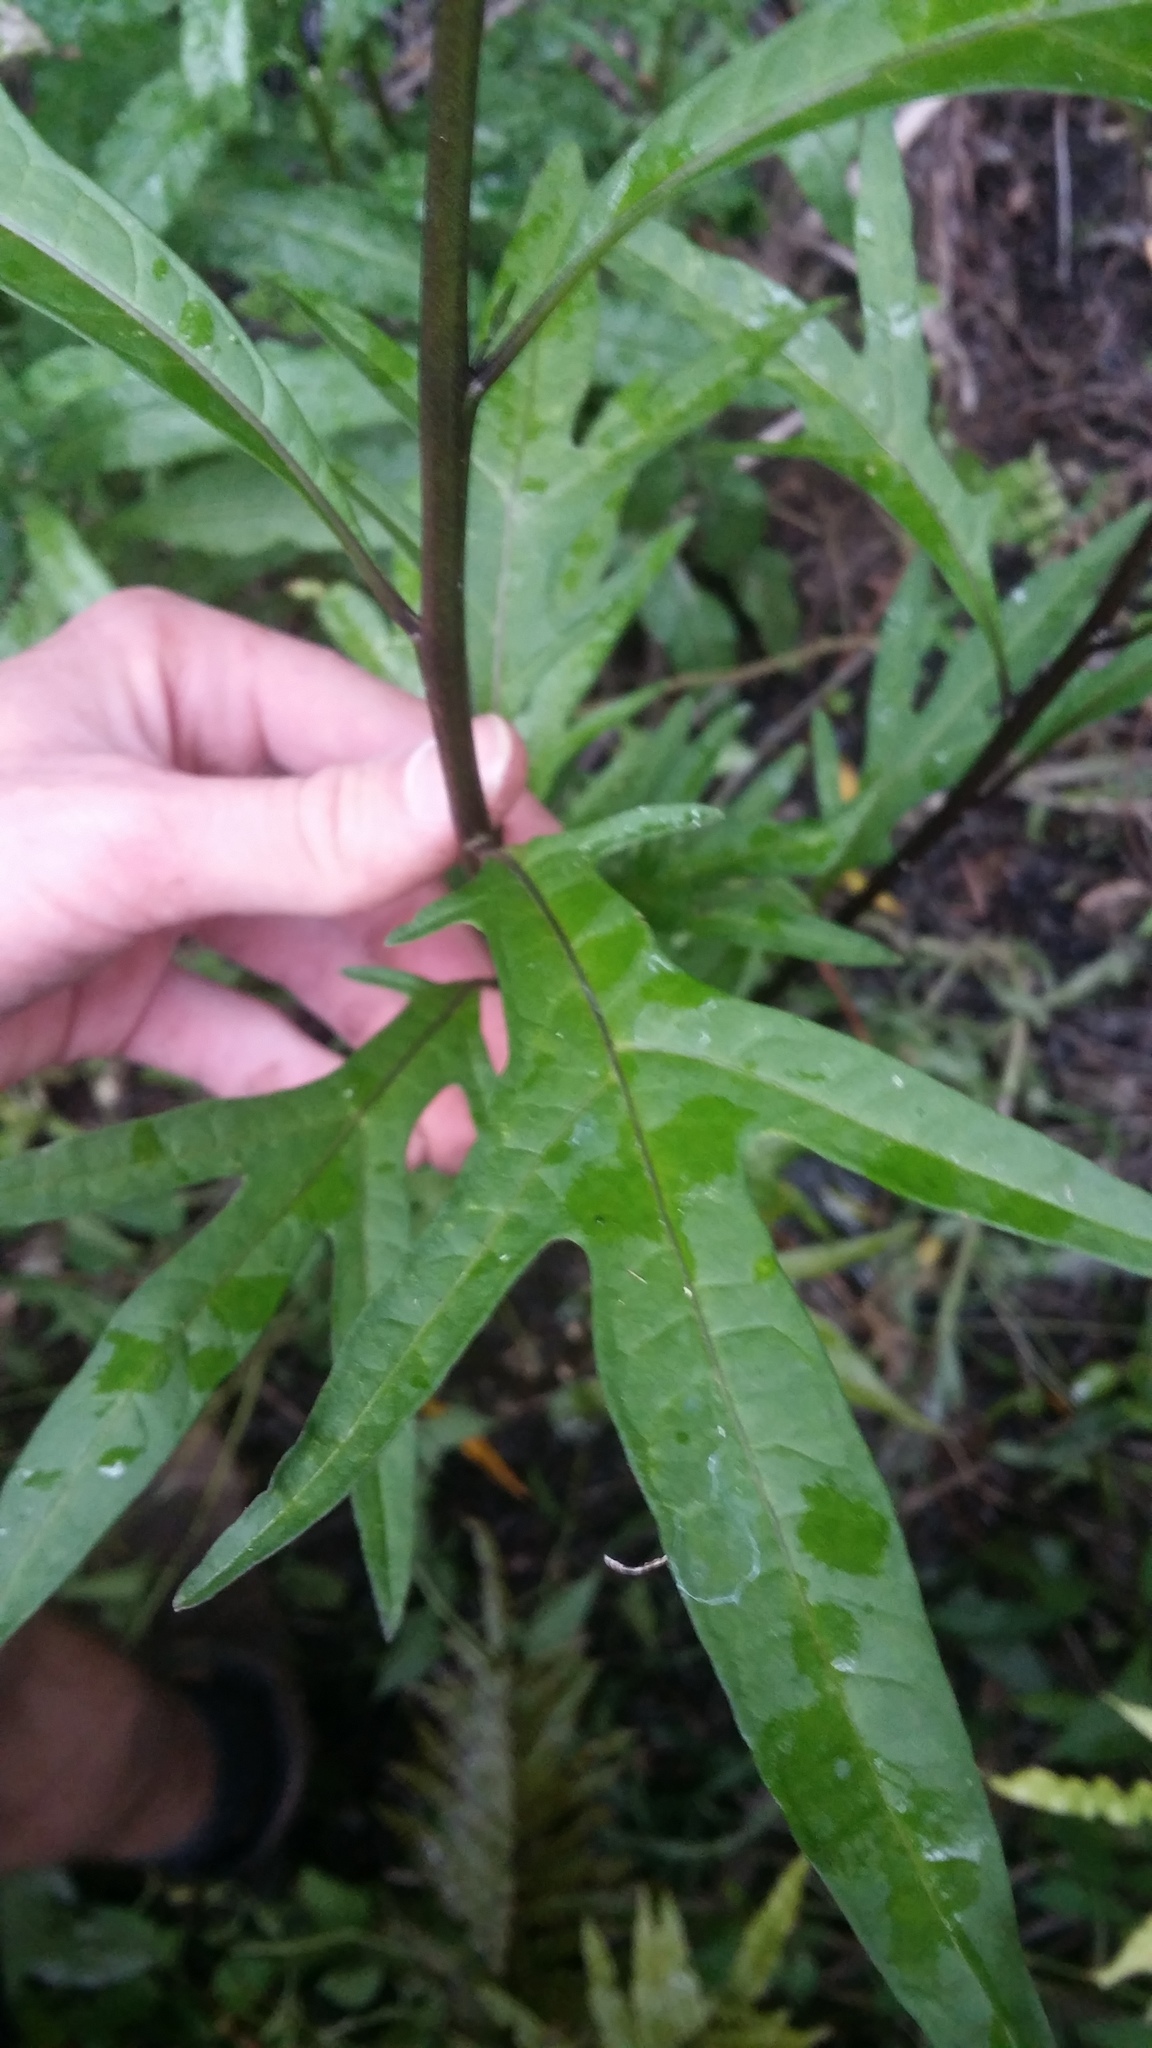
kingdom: Plantae
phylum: Tracheophyta
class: Magnoliopsida
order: Solanales
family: Solanaceae
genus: Solanum
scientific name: Solanum laciniatum
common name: Kangaroo-apple
